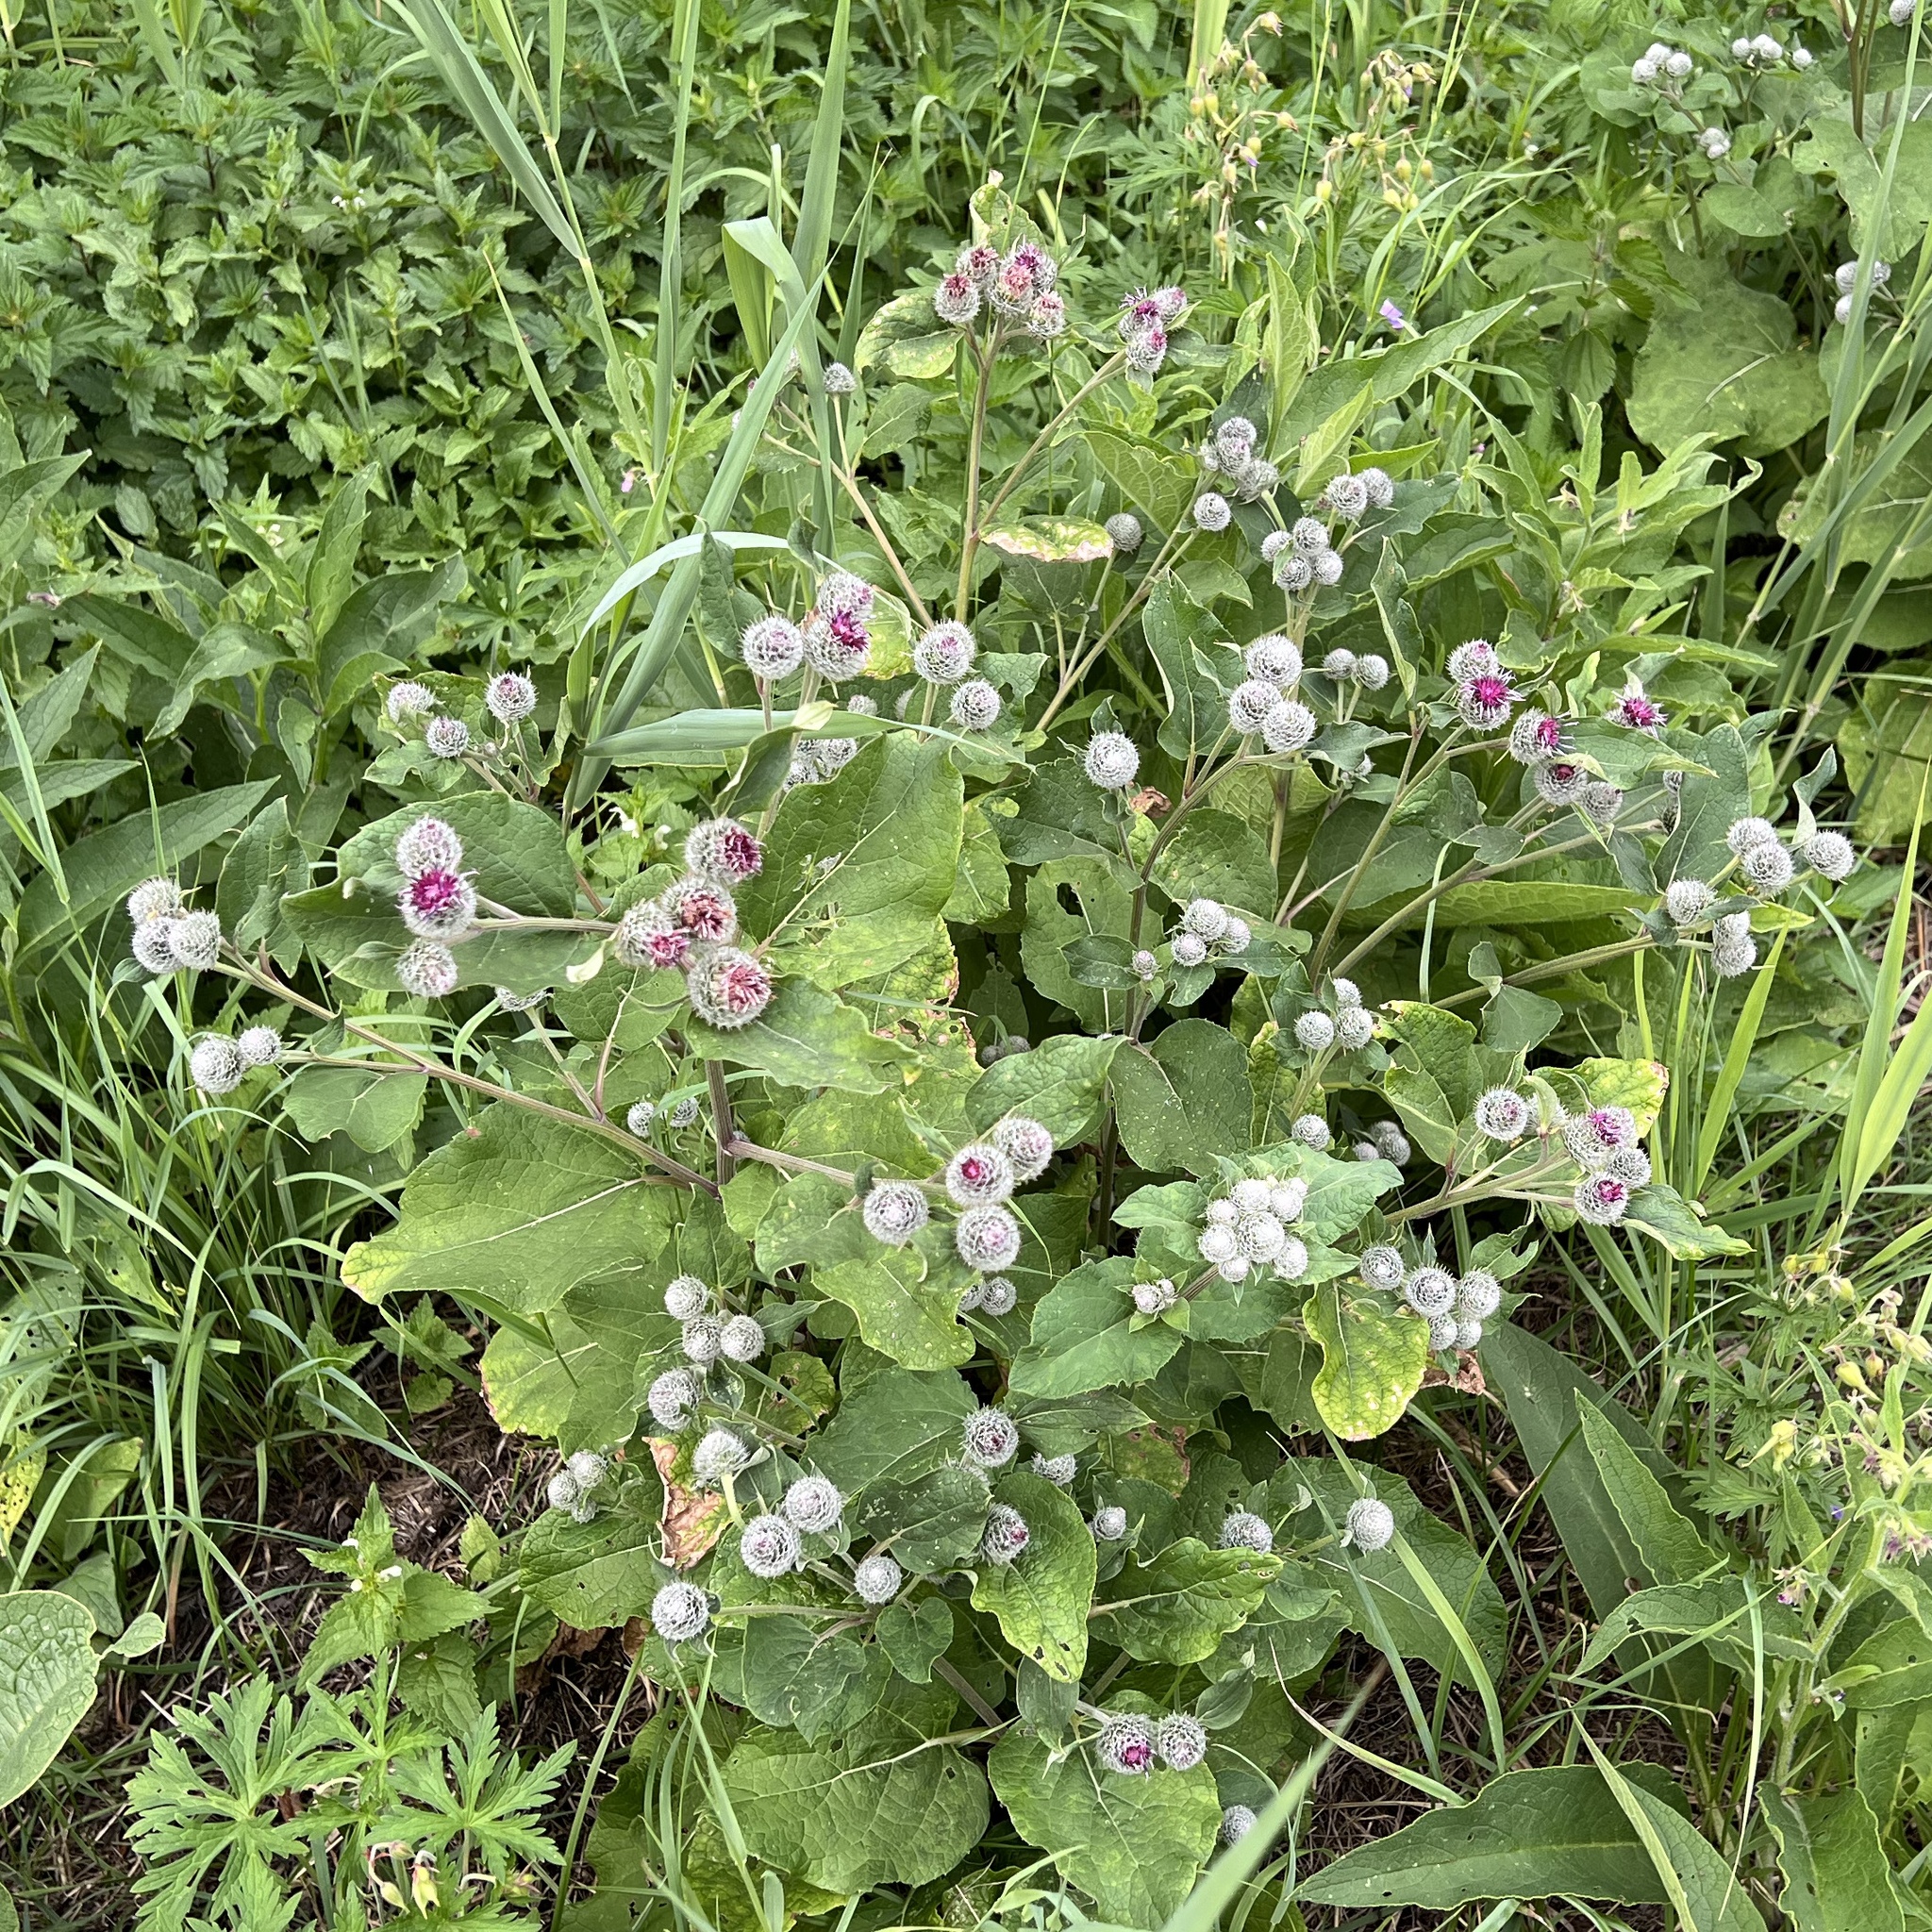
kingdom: Plantae
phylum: Tracheophyta
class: Magnoliopsida
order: Asterales
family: Asteraceae
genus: Arctium
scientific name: Arctium tomentosum
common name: Woolly burdock
